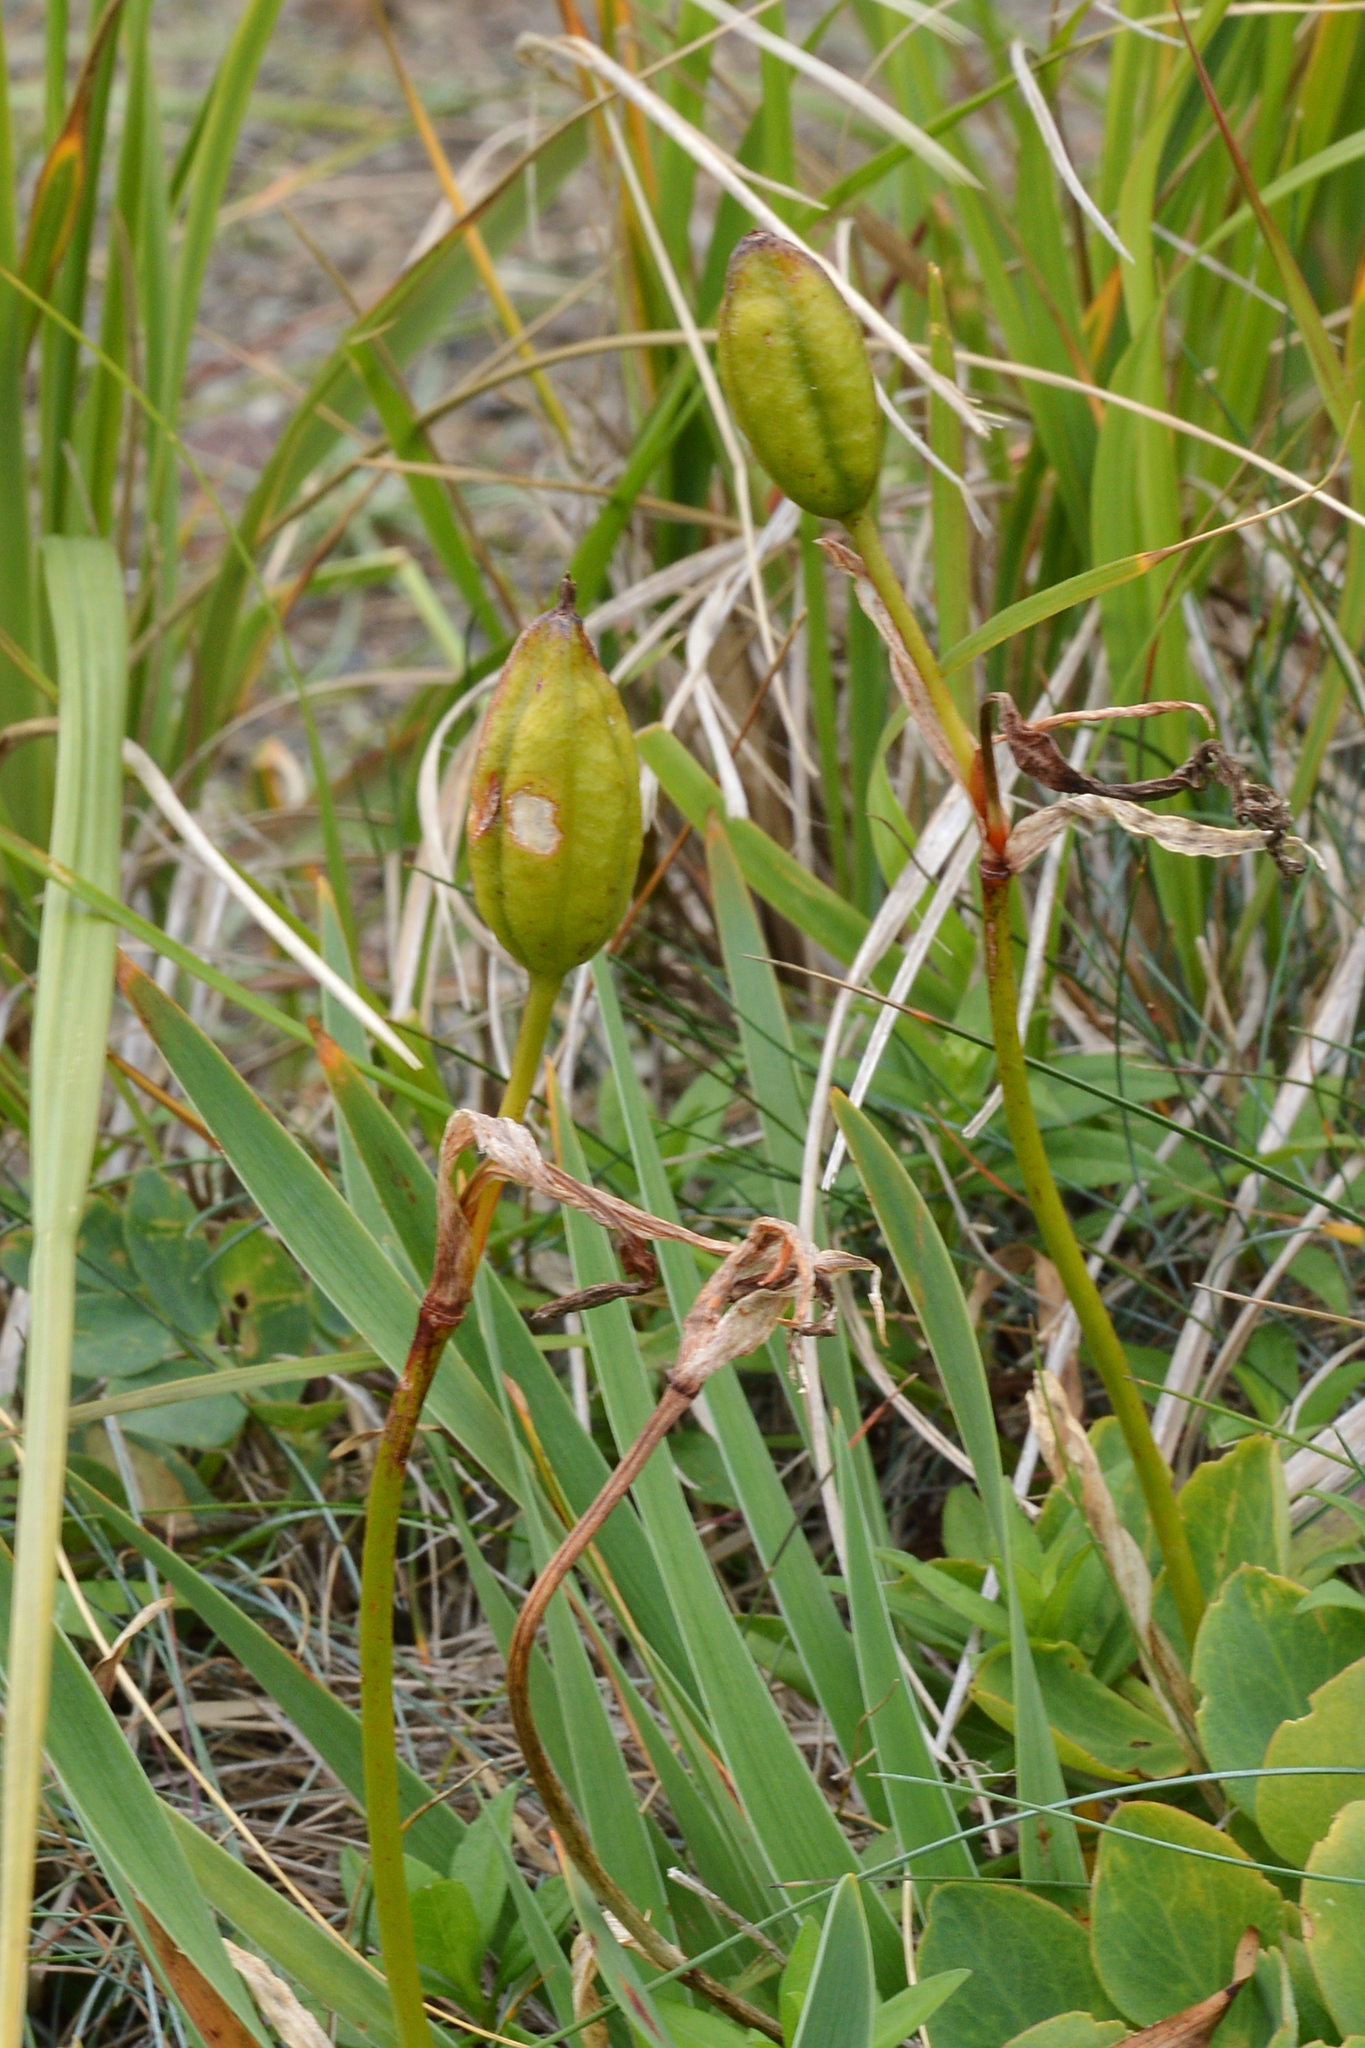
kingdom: Plantae
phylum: Tracheophyta
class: Liliopsida
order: Asparagales
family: Iridaceae
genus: Iris
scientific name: Iris hookeri
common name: Canada beach-head iris
